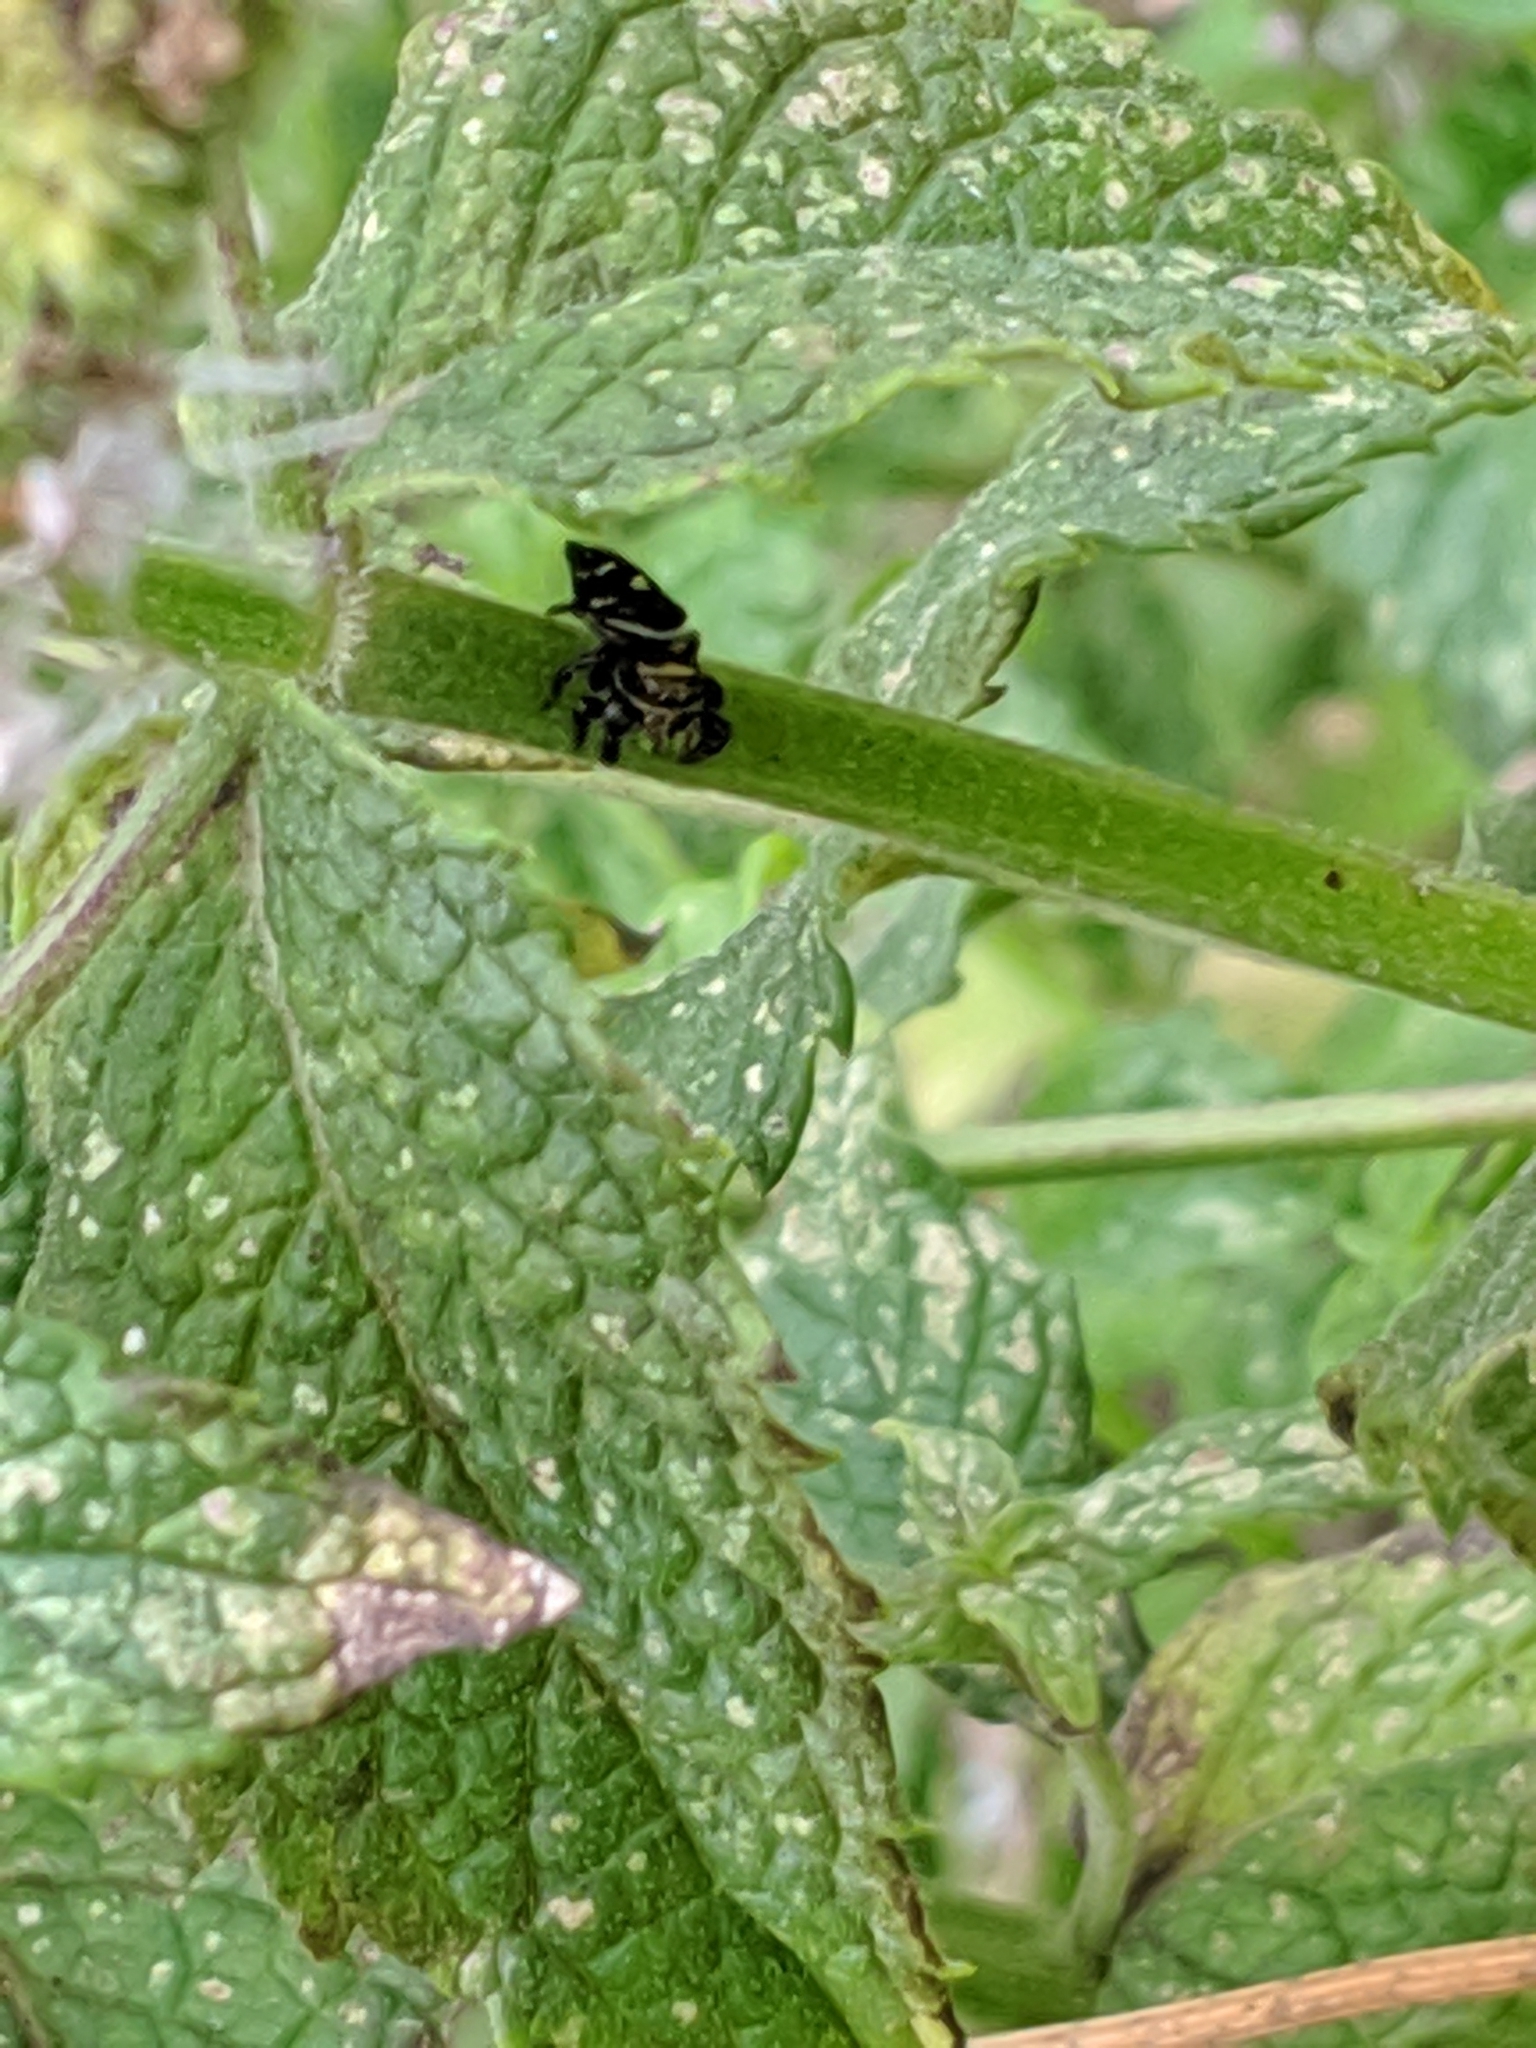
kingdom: Animalia
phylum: Arthropoda
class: Arachnida
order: Araneae
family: Salticidae
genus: Phidippus
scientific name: Phidippus audax
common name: Bold jumper
